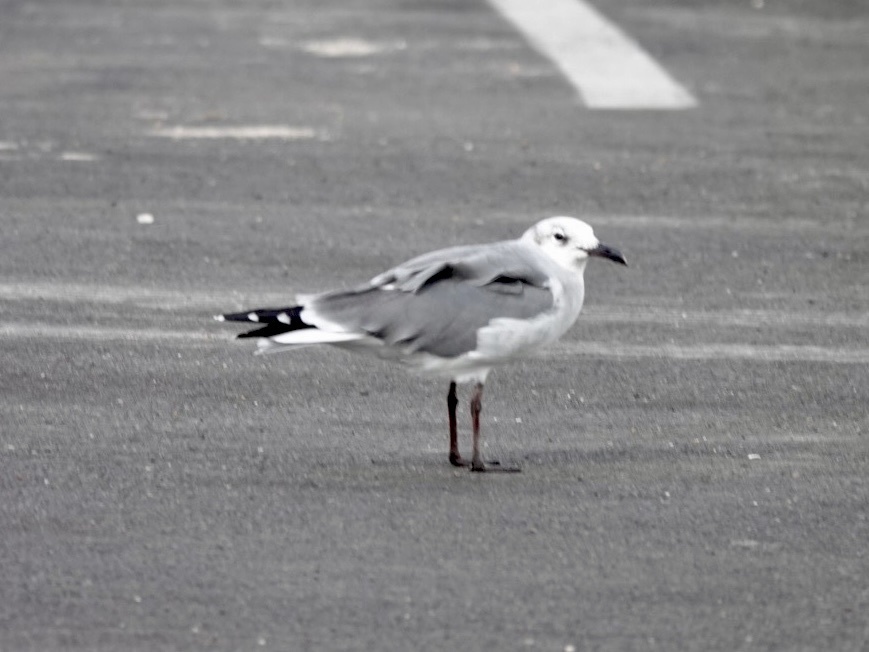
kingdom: Animalia
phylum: Chordata
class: Aves
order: Charadriiformes
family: Laridae
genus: Leucophaeus
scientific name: Leucophaeus atricilla
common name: Laughing gull
